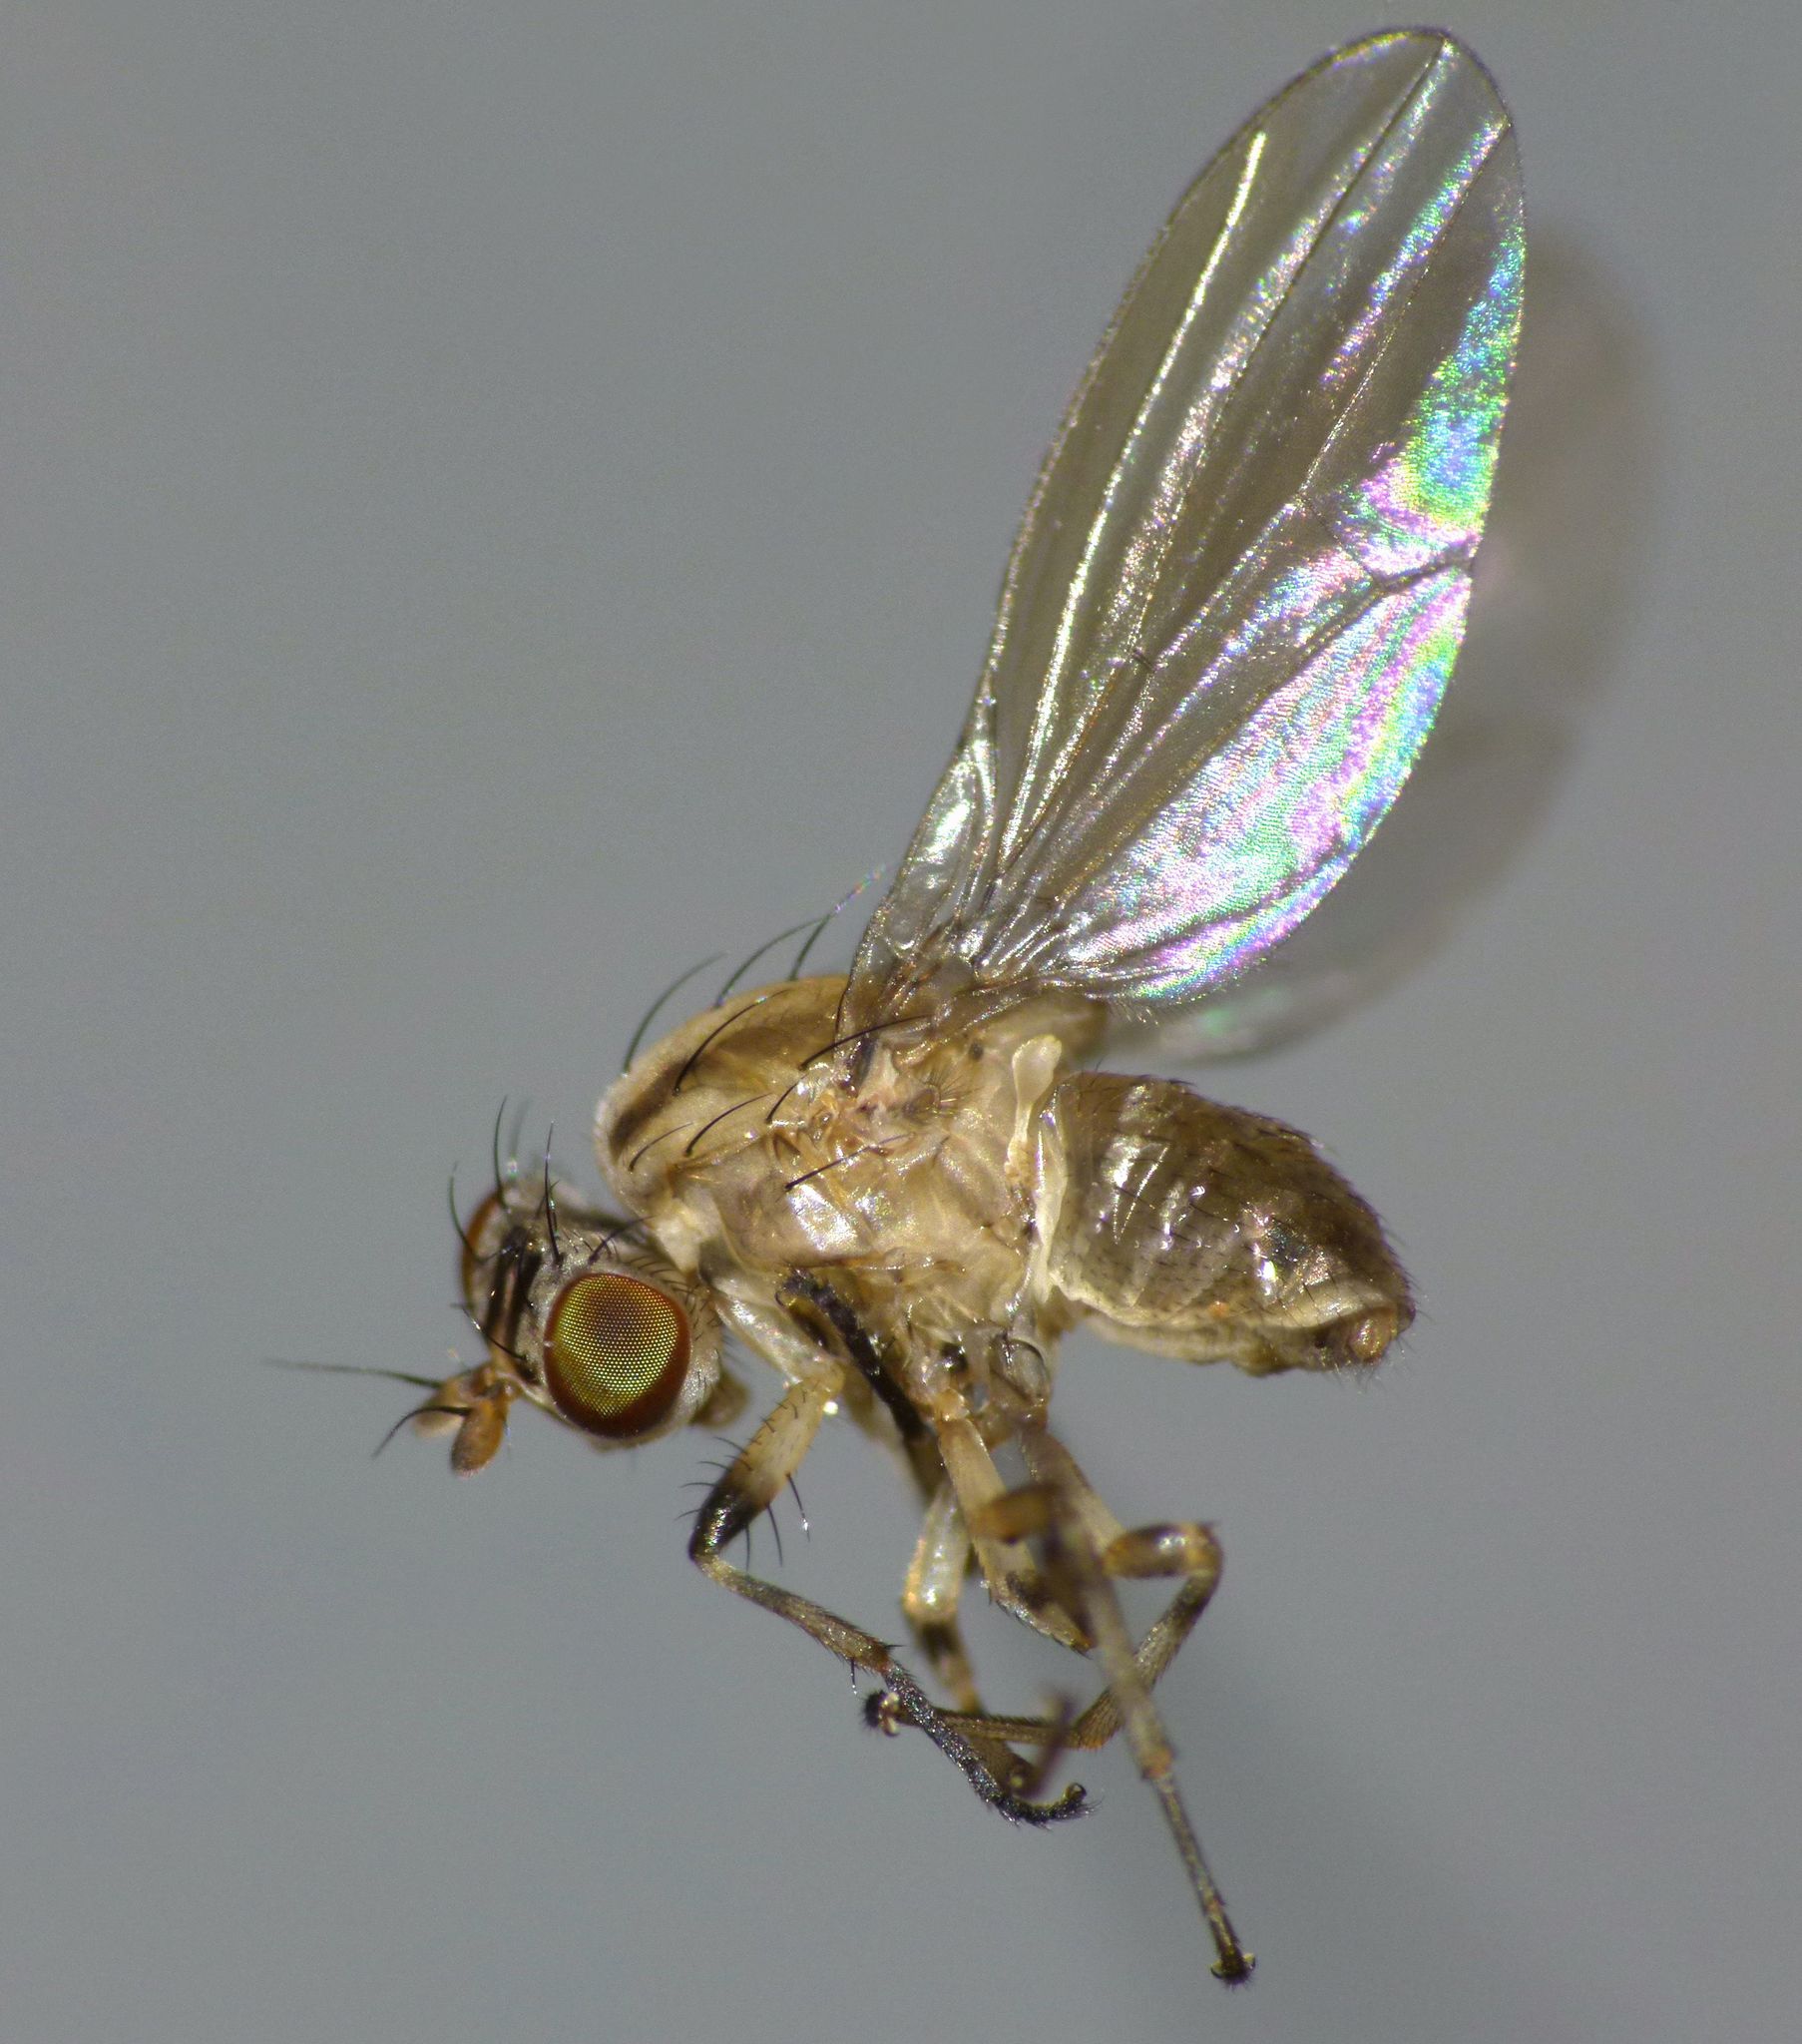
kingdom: Animalia
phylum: Arthropoda
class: Insecta
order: Diptera
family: Lauxaniidae
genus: Poecilohetaerus
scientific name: Poecilohetaerus punctatifacies
